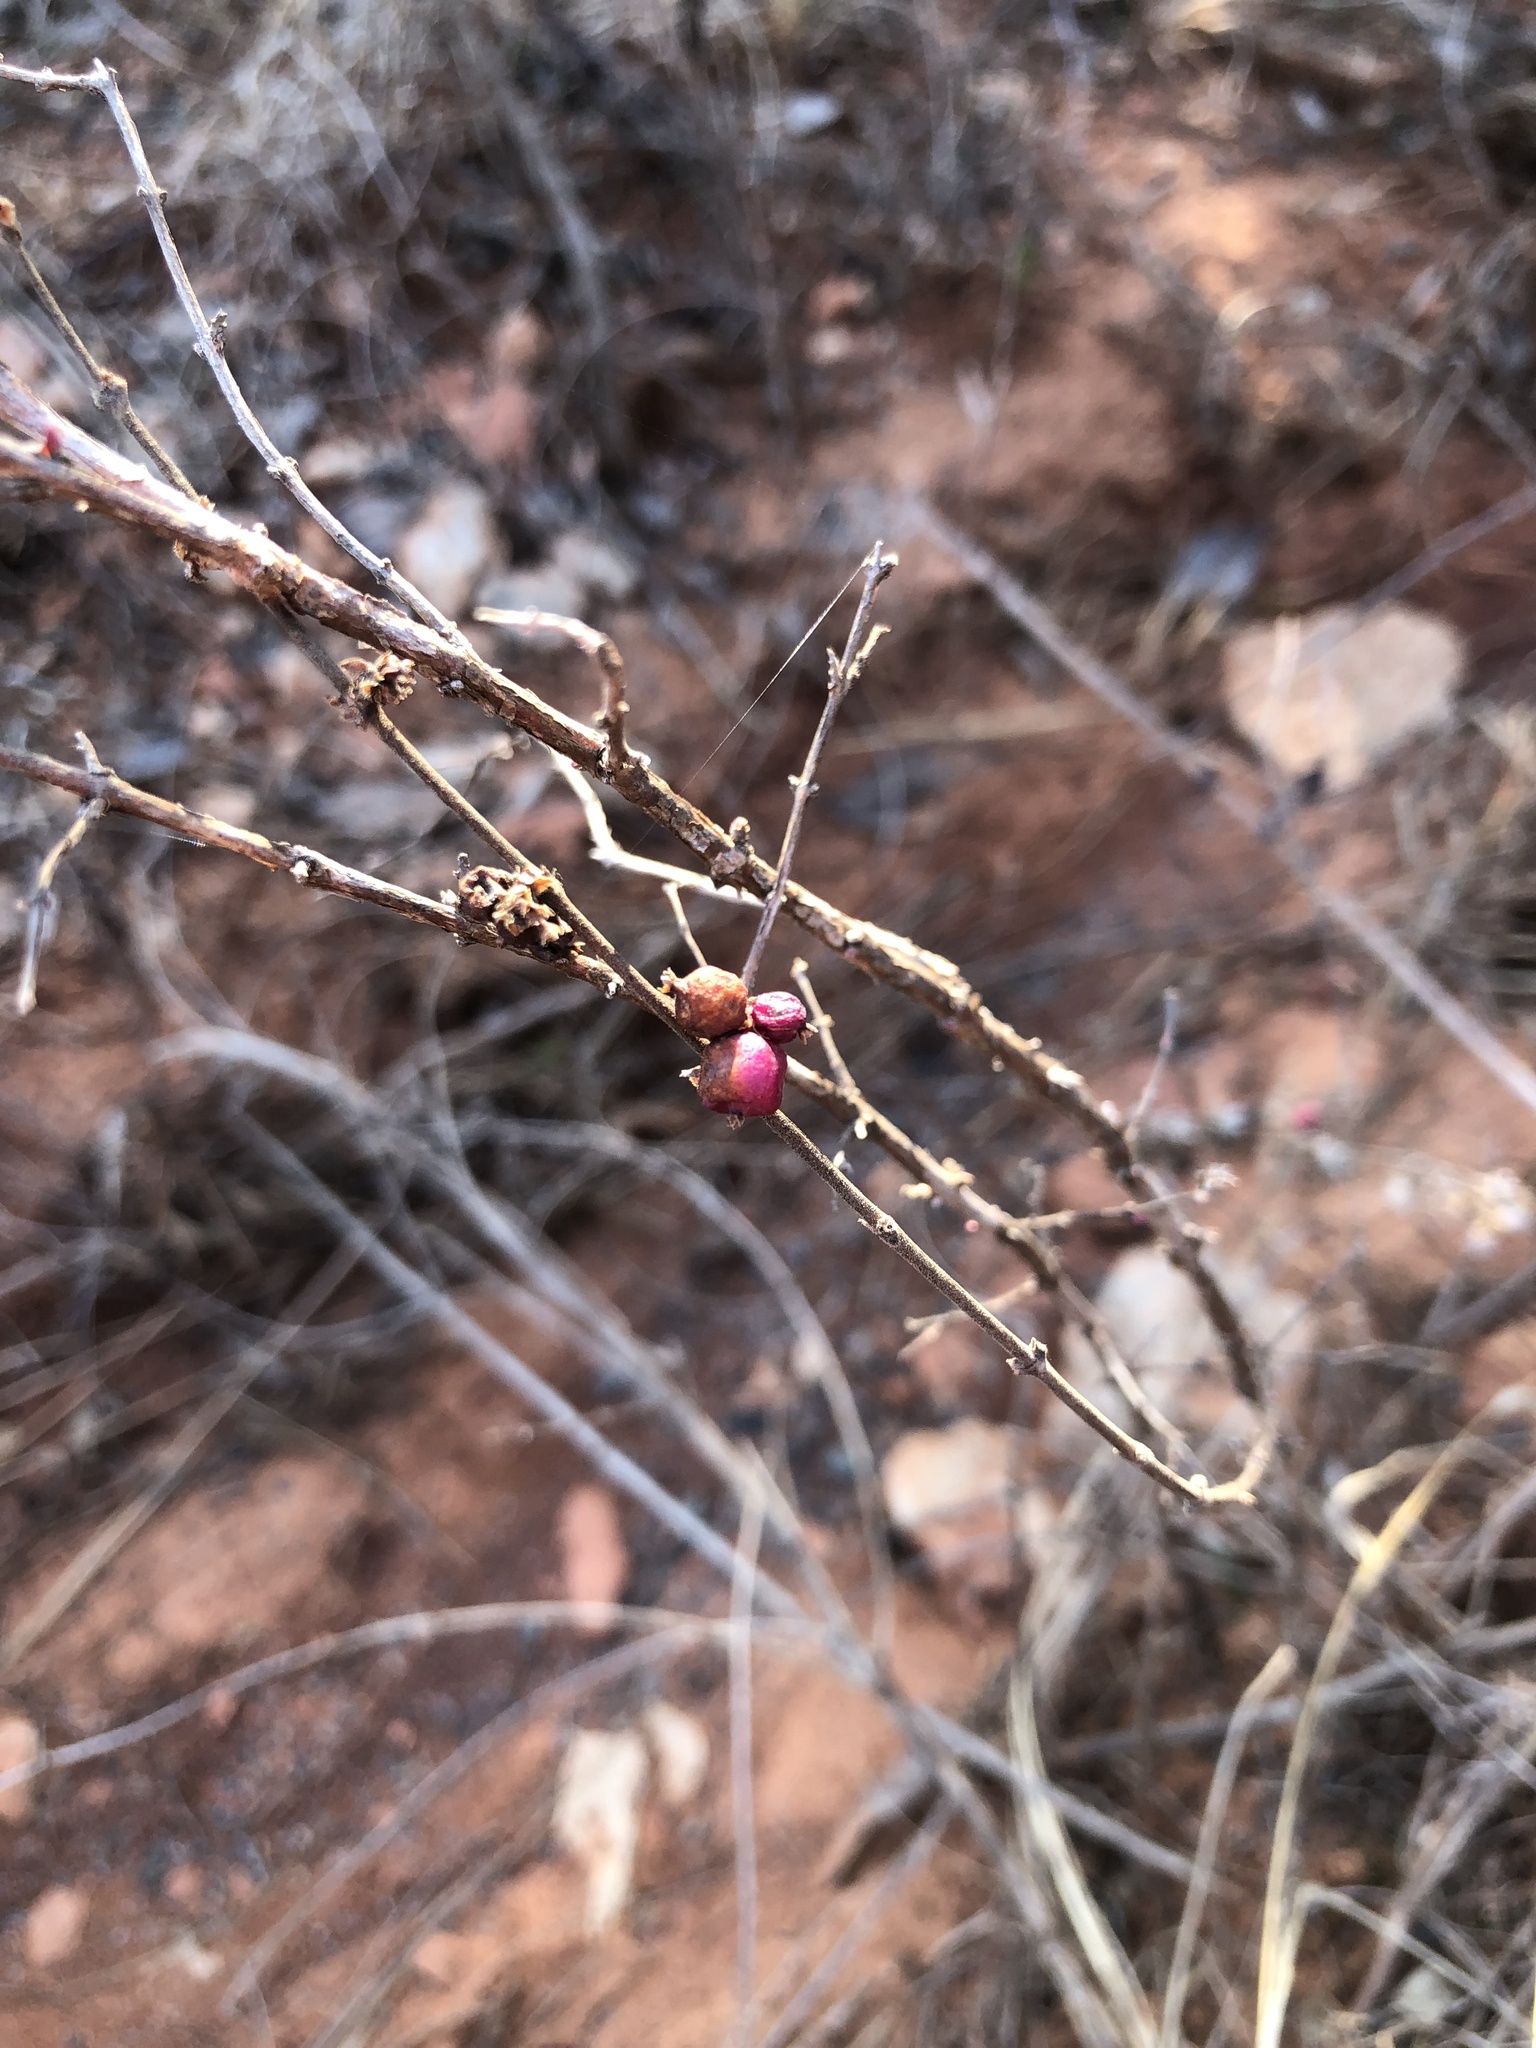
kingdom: Plantae
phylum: Tracheophyta
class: Magnoliopsida
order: Dipsacales
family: Caprifoliaceae
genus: Symphoricarpos
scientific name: Symphoricarpos orbiculatus
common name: Coralberry
